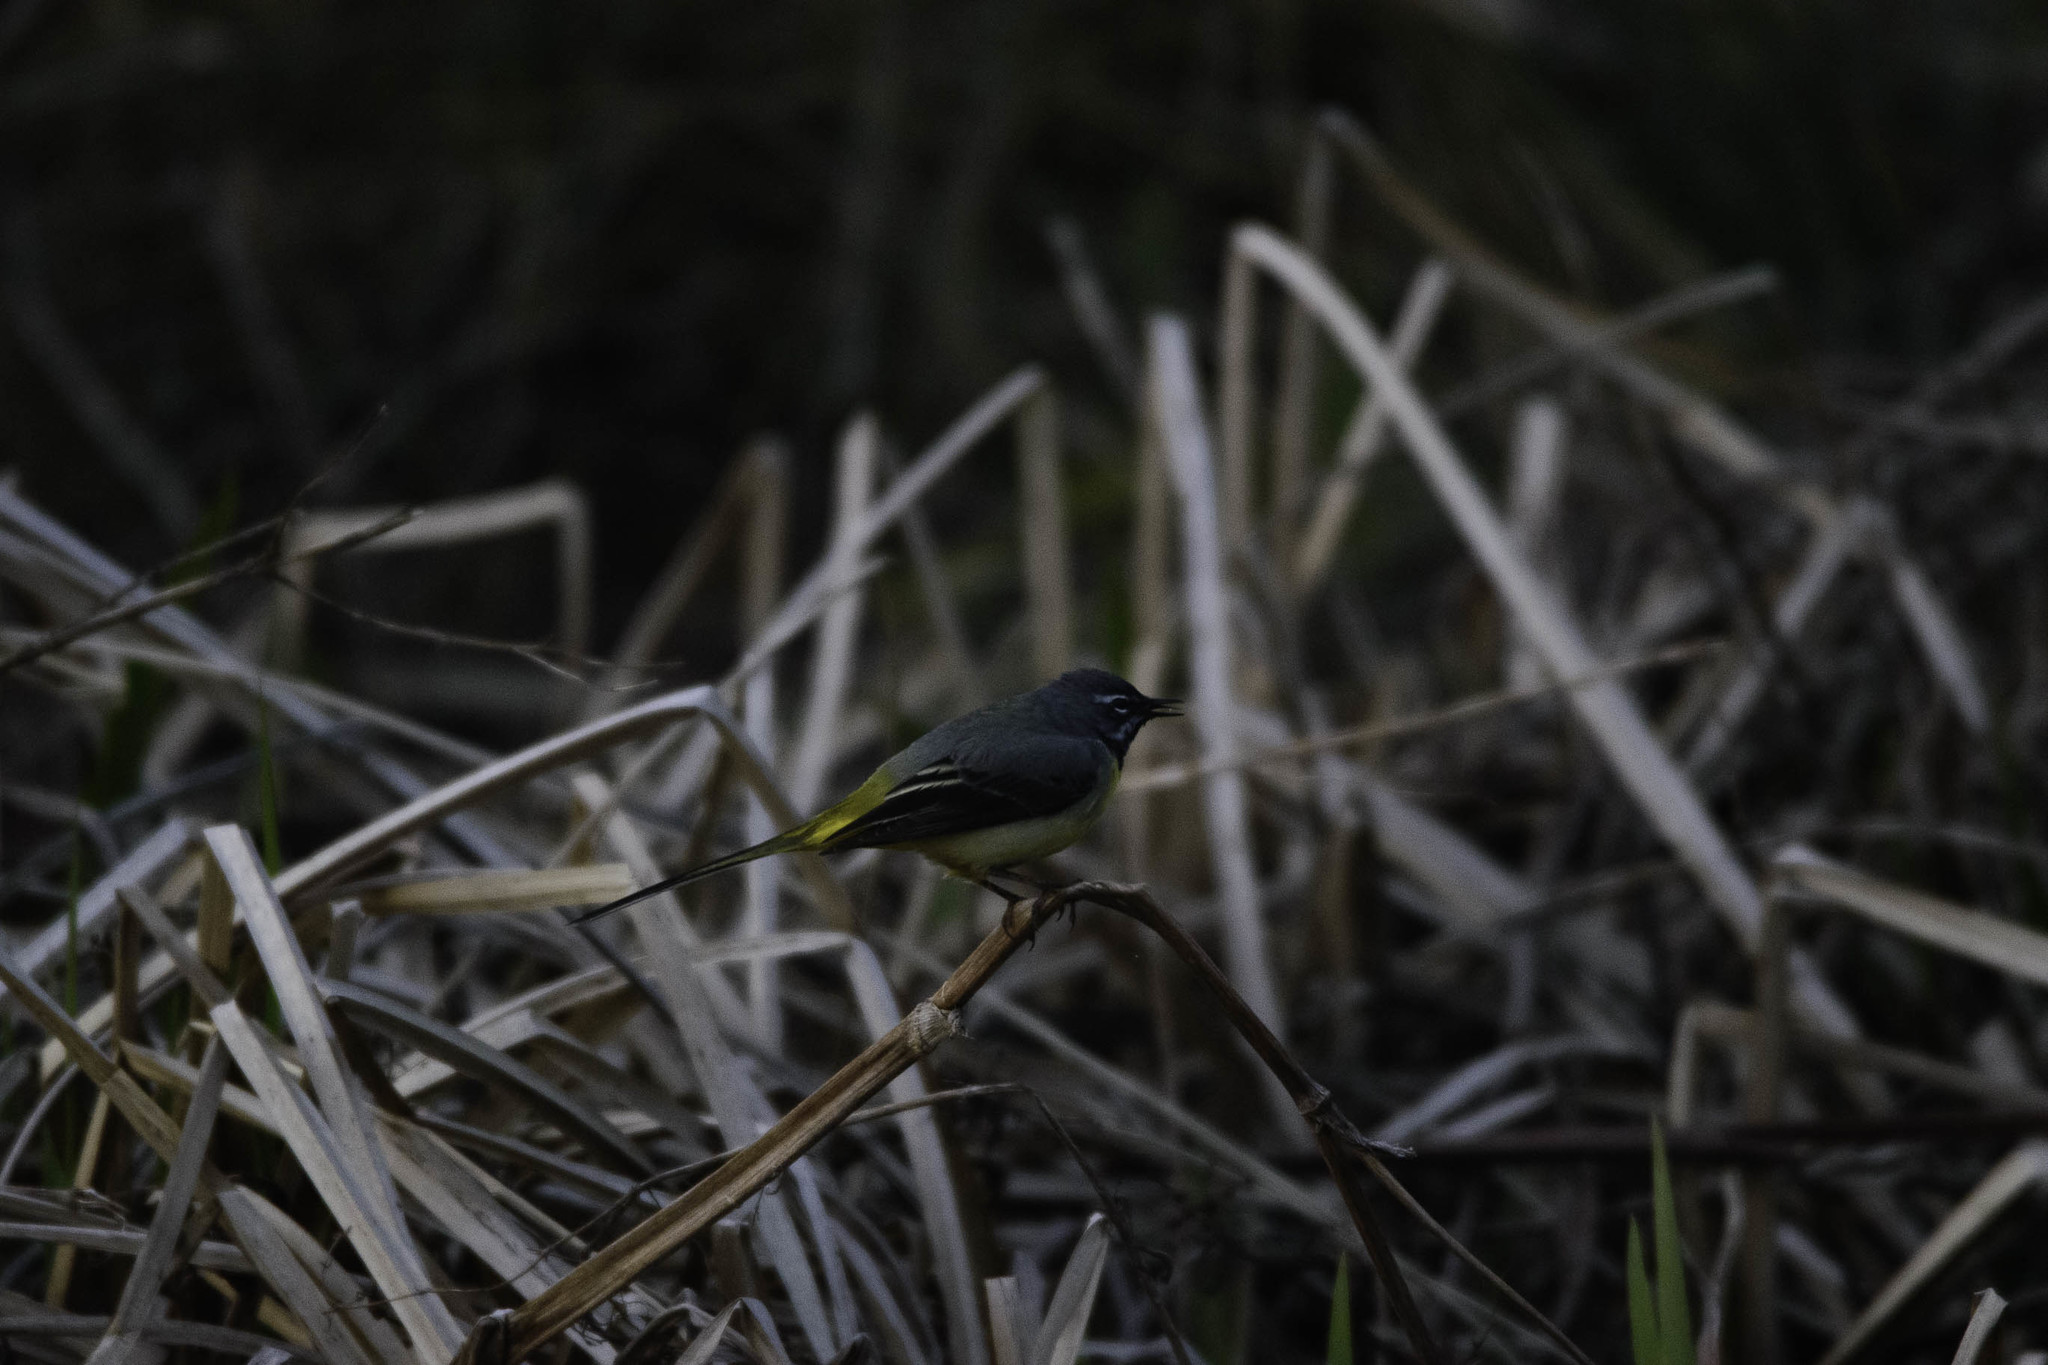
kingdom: Animalia
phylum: Chordata
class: Aves
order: Passeriformes
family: Motacillidae
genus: Motacilla
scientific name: Motacilla cinerea
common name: Grey wagtail
